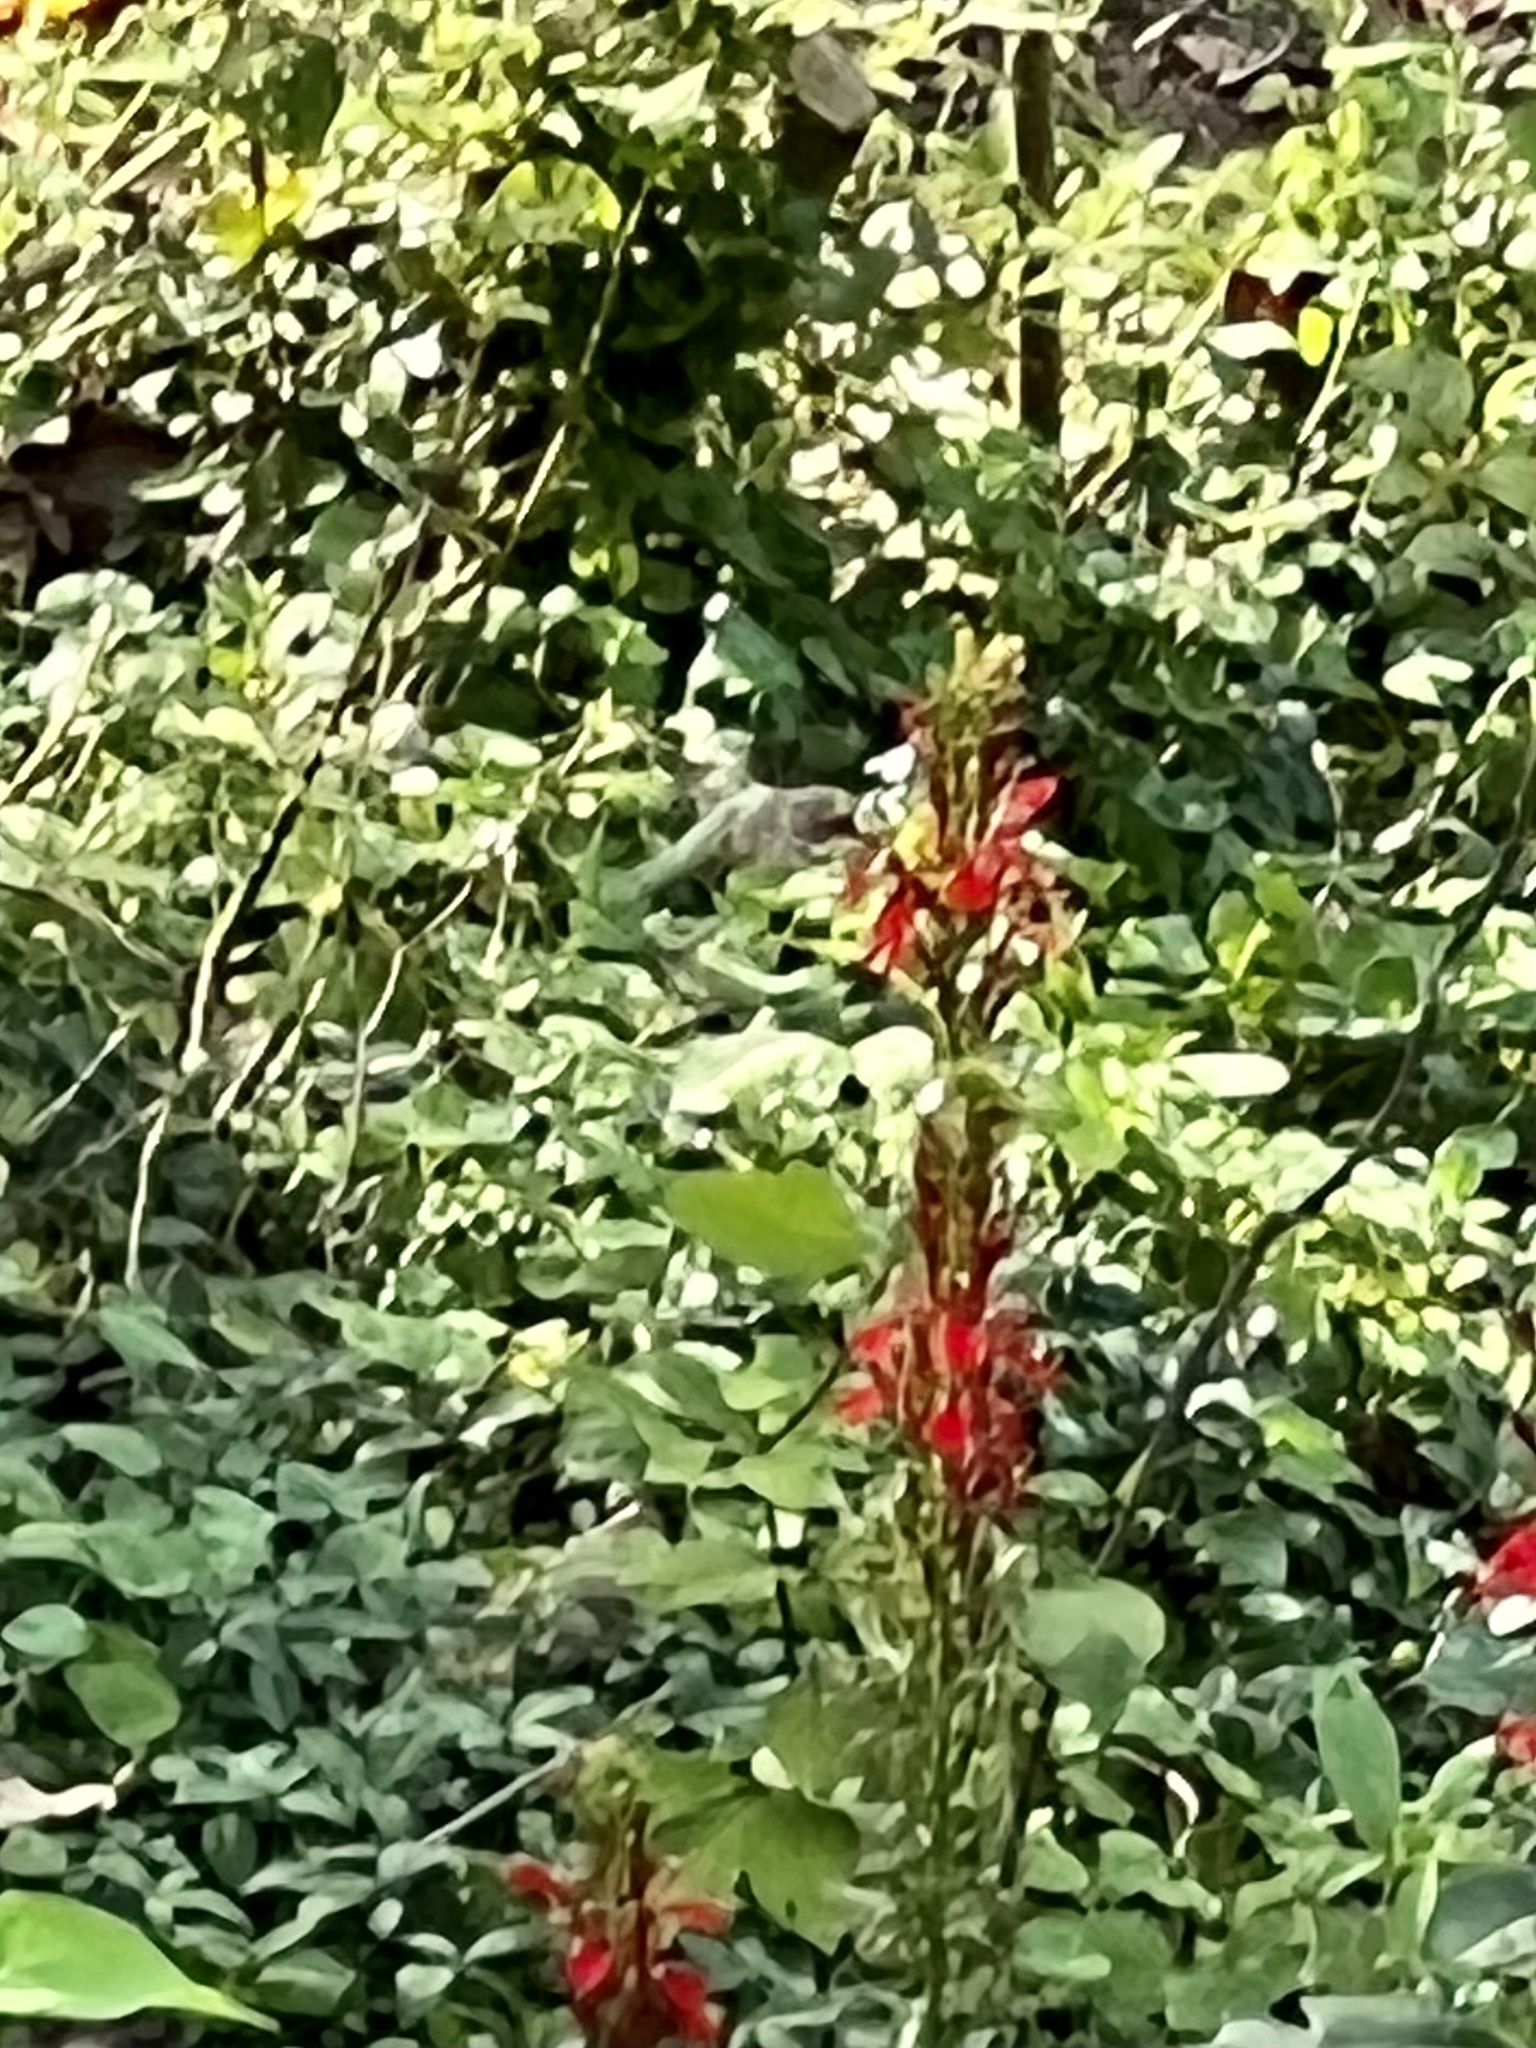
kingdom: Animalia
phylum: Chordata
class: Aves
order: Apodiformes
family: Trochilidae
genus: Archilochus
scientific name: Archilochus colubris
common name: Ruby-throated hummingbird
